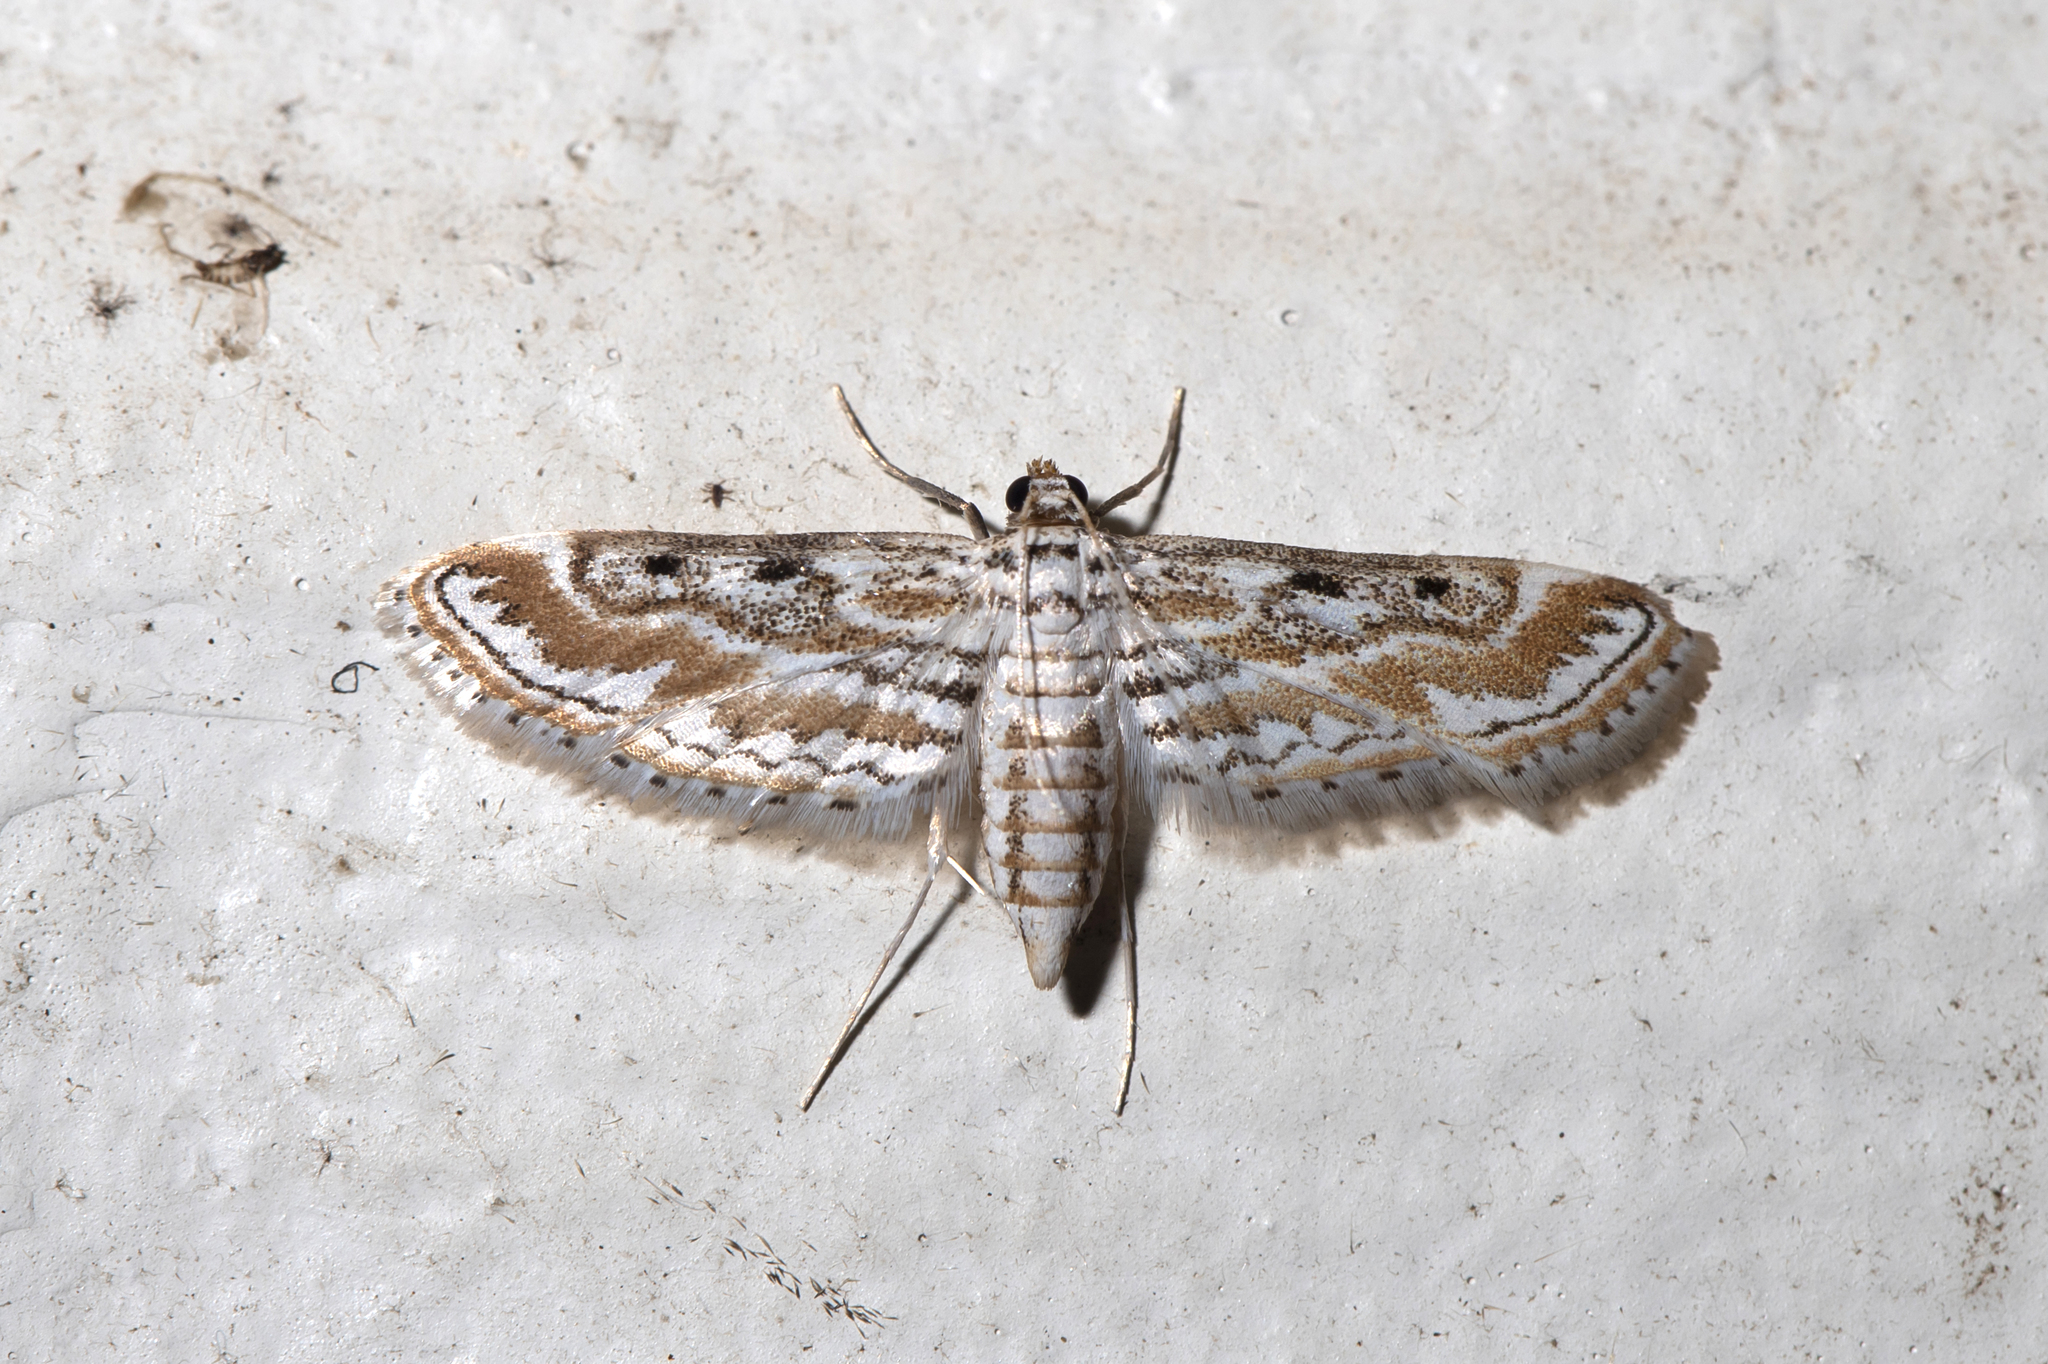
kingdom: Animalia
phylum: Arthropoda
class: Insecta
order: Lepidoptera
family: Crambidae
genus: Parapoynx
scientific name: Parapoynx dentizonalis
